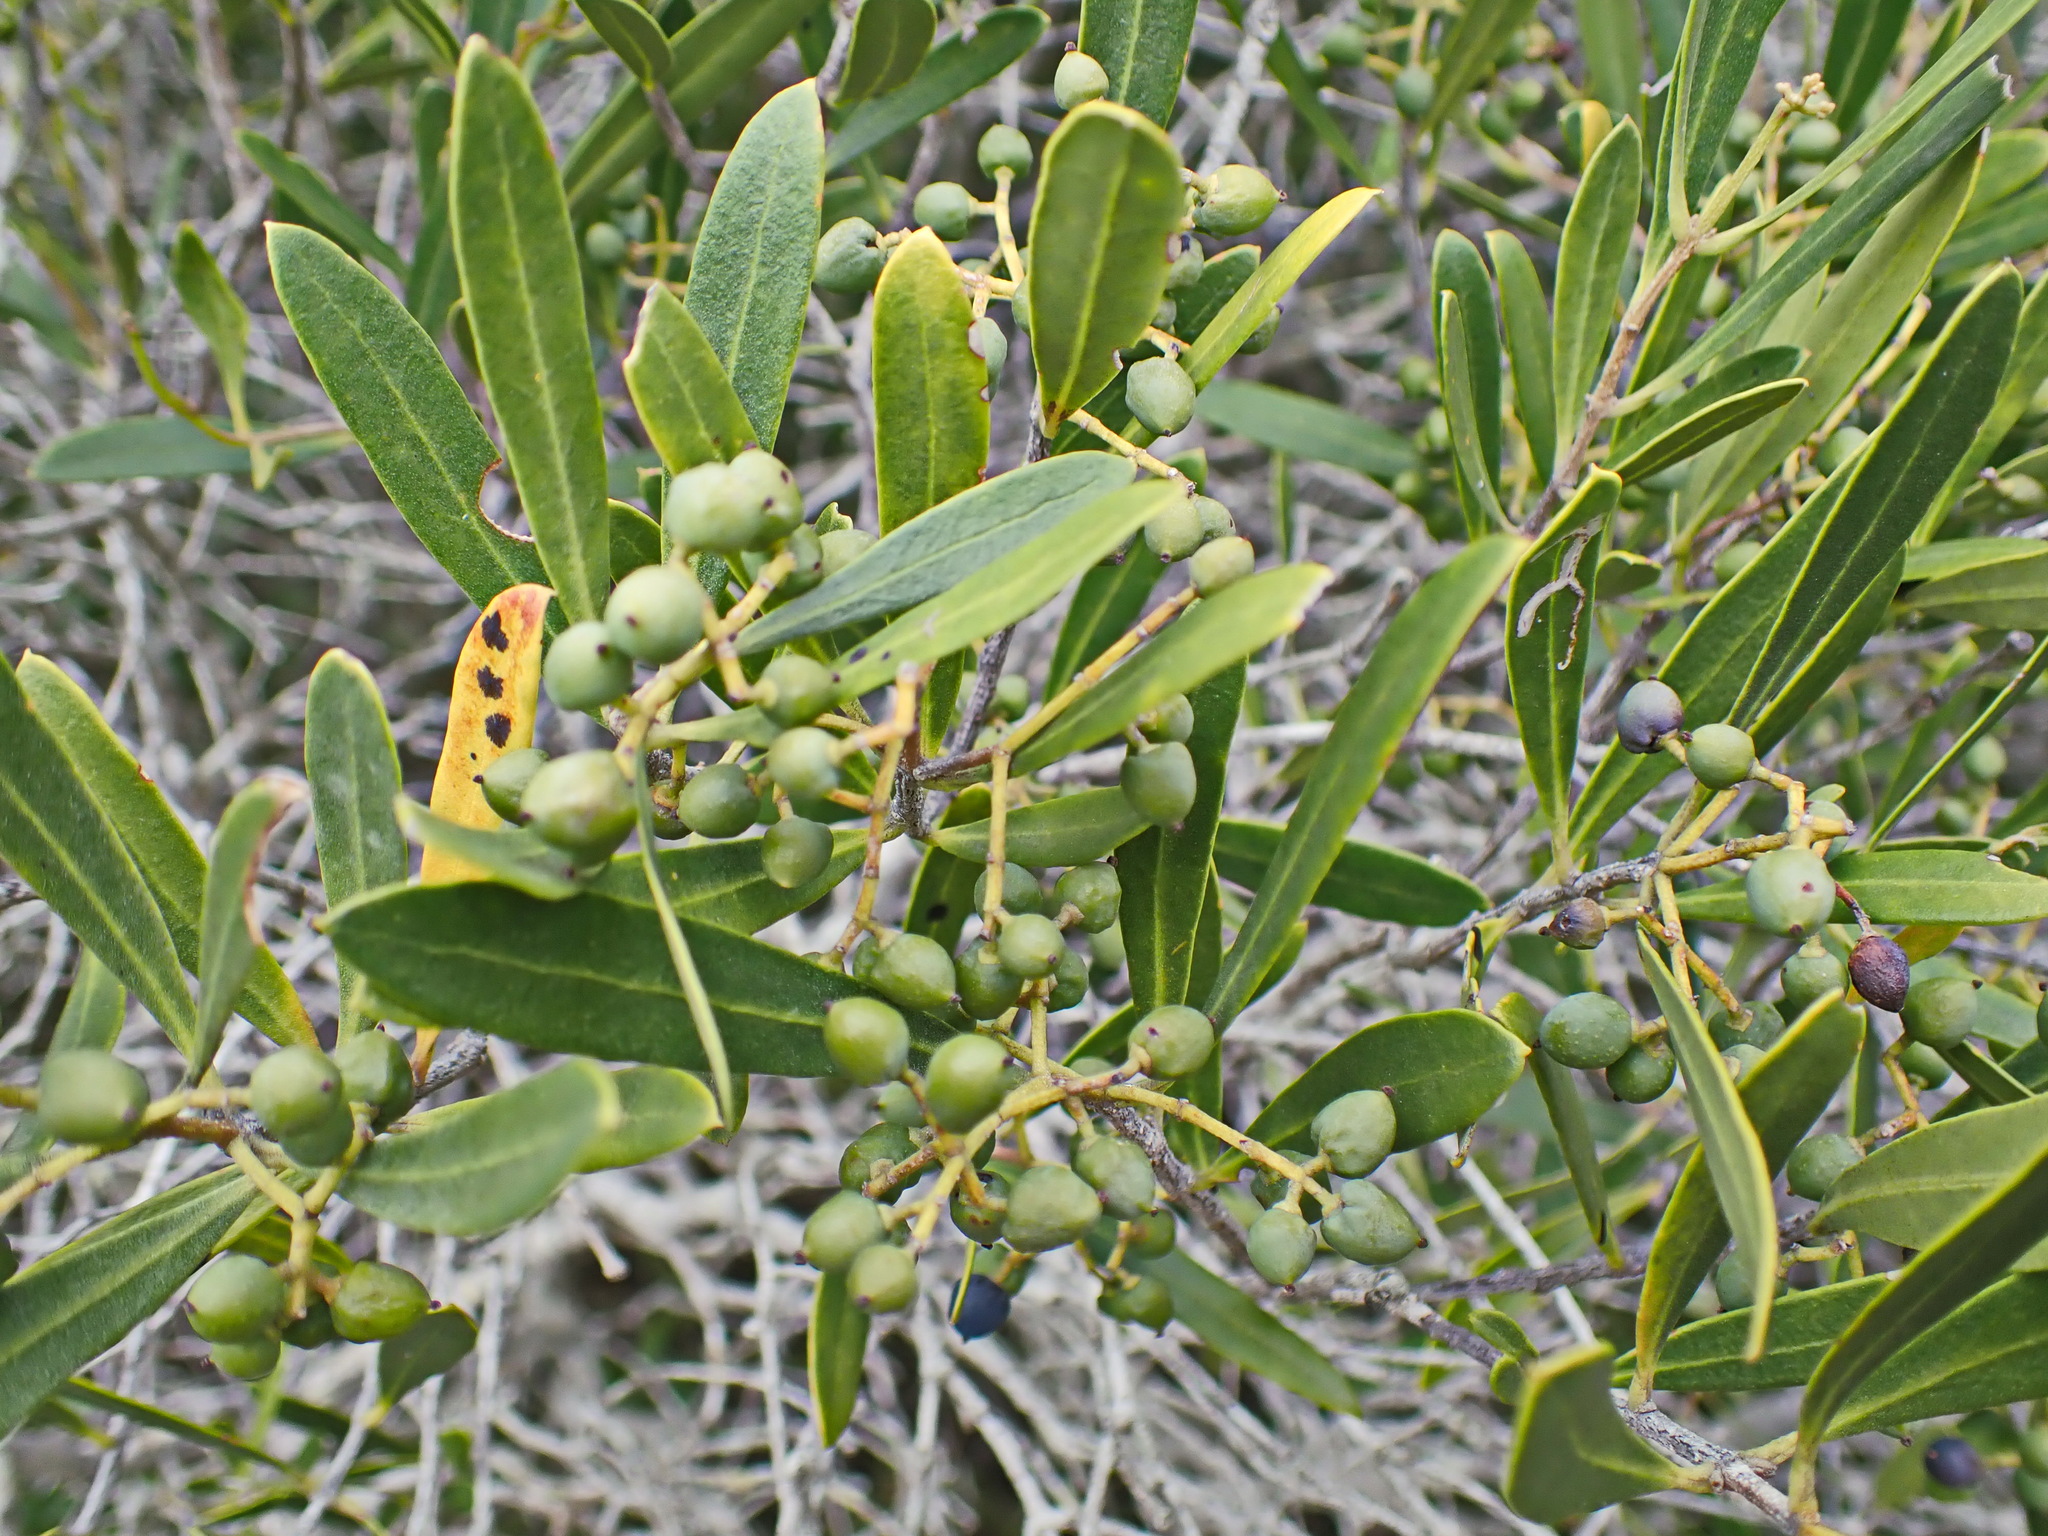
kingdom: Plantae
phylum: Tracheophyta
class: Magnoliopsida
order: Lamiales
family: Oleaceae
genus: Olea
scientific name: Olea exasperata
